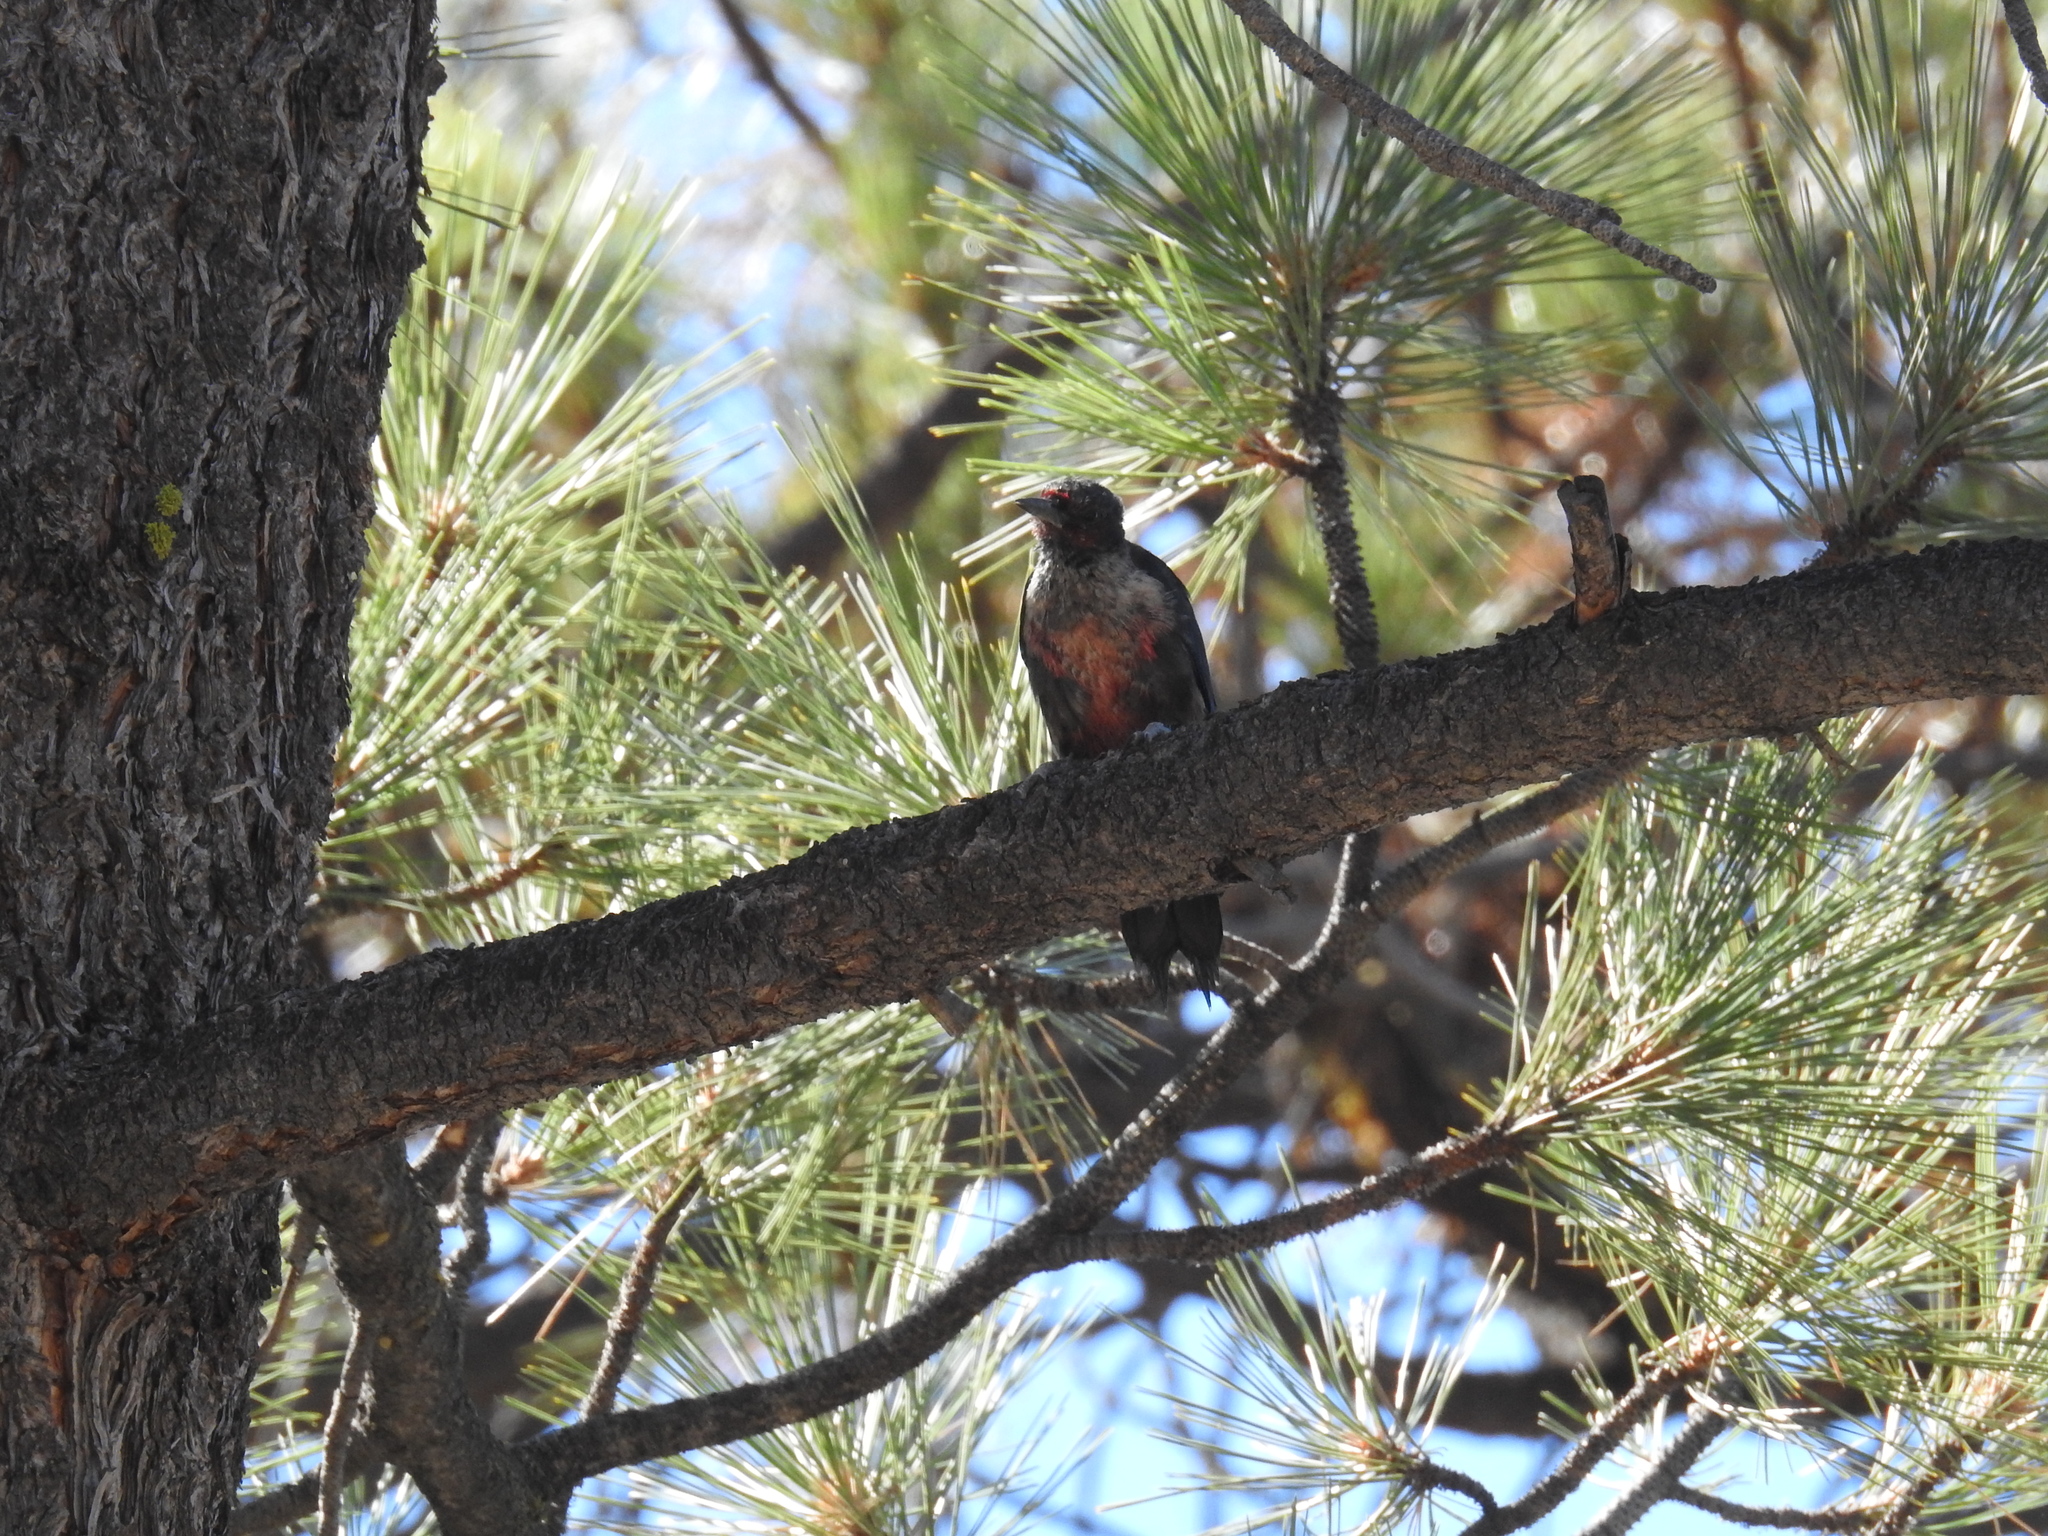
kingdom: Animalia
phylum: Chordata
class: Aves
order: Piciformes
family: Picidae
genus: Melanerpes
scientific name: Melanerpes lewis
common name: Lewis's woodpecker
